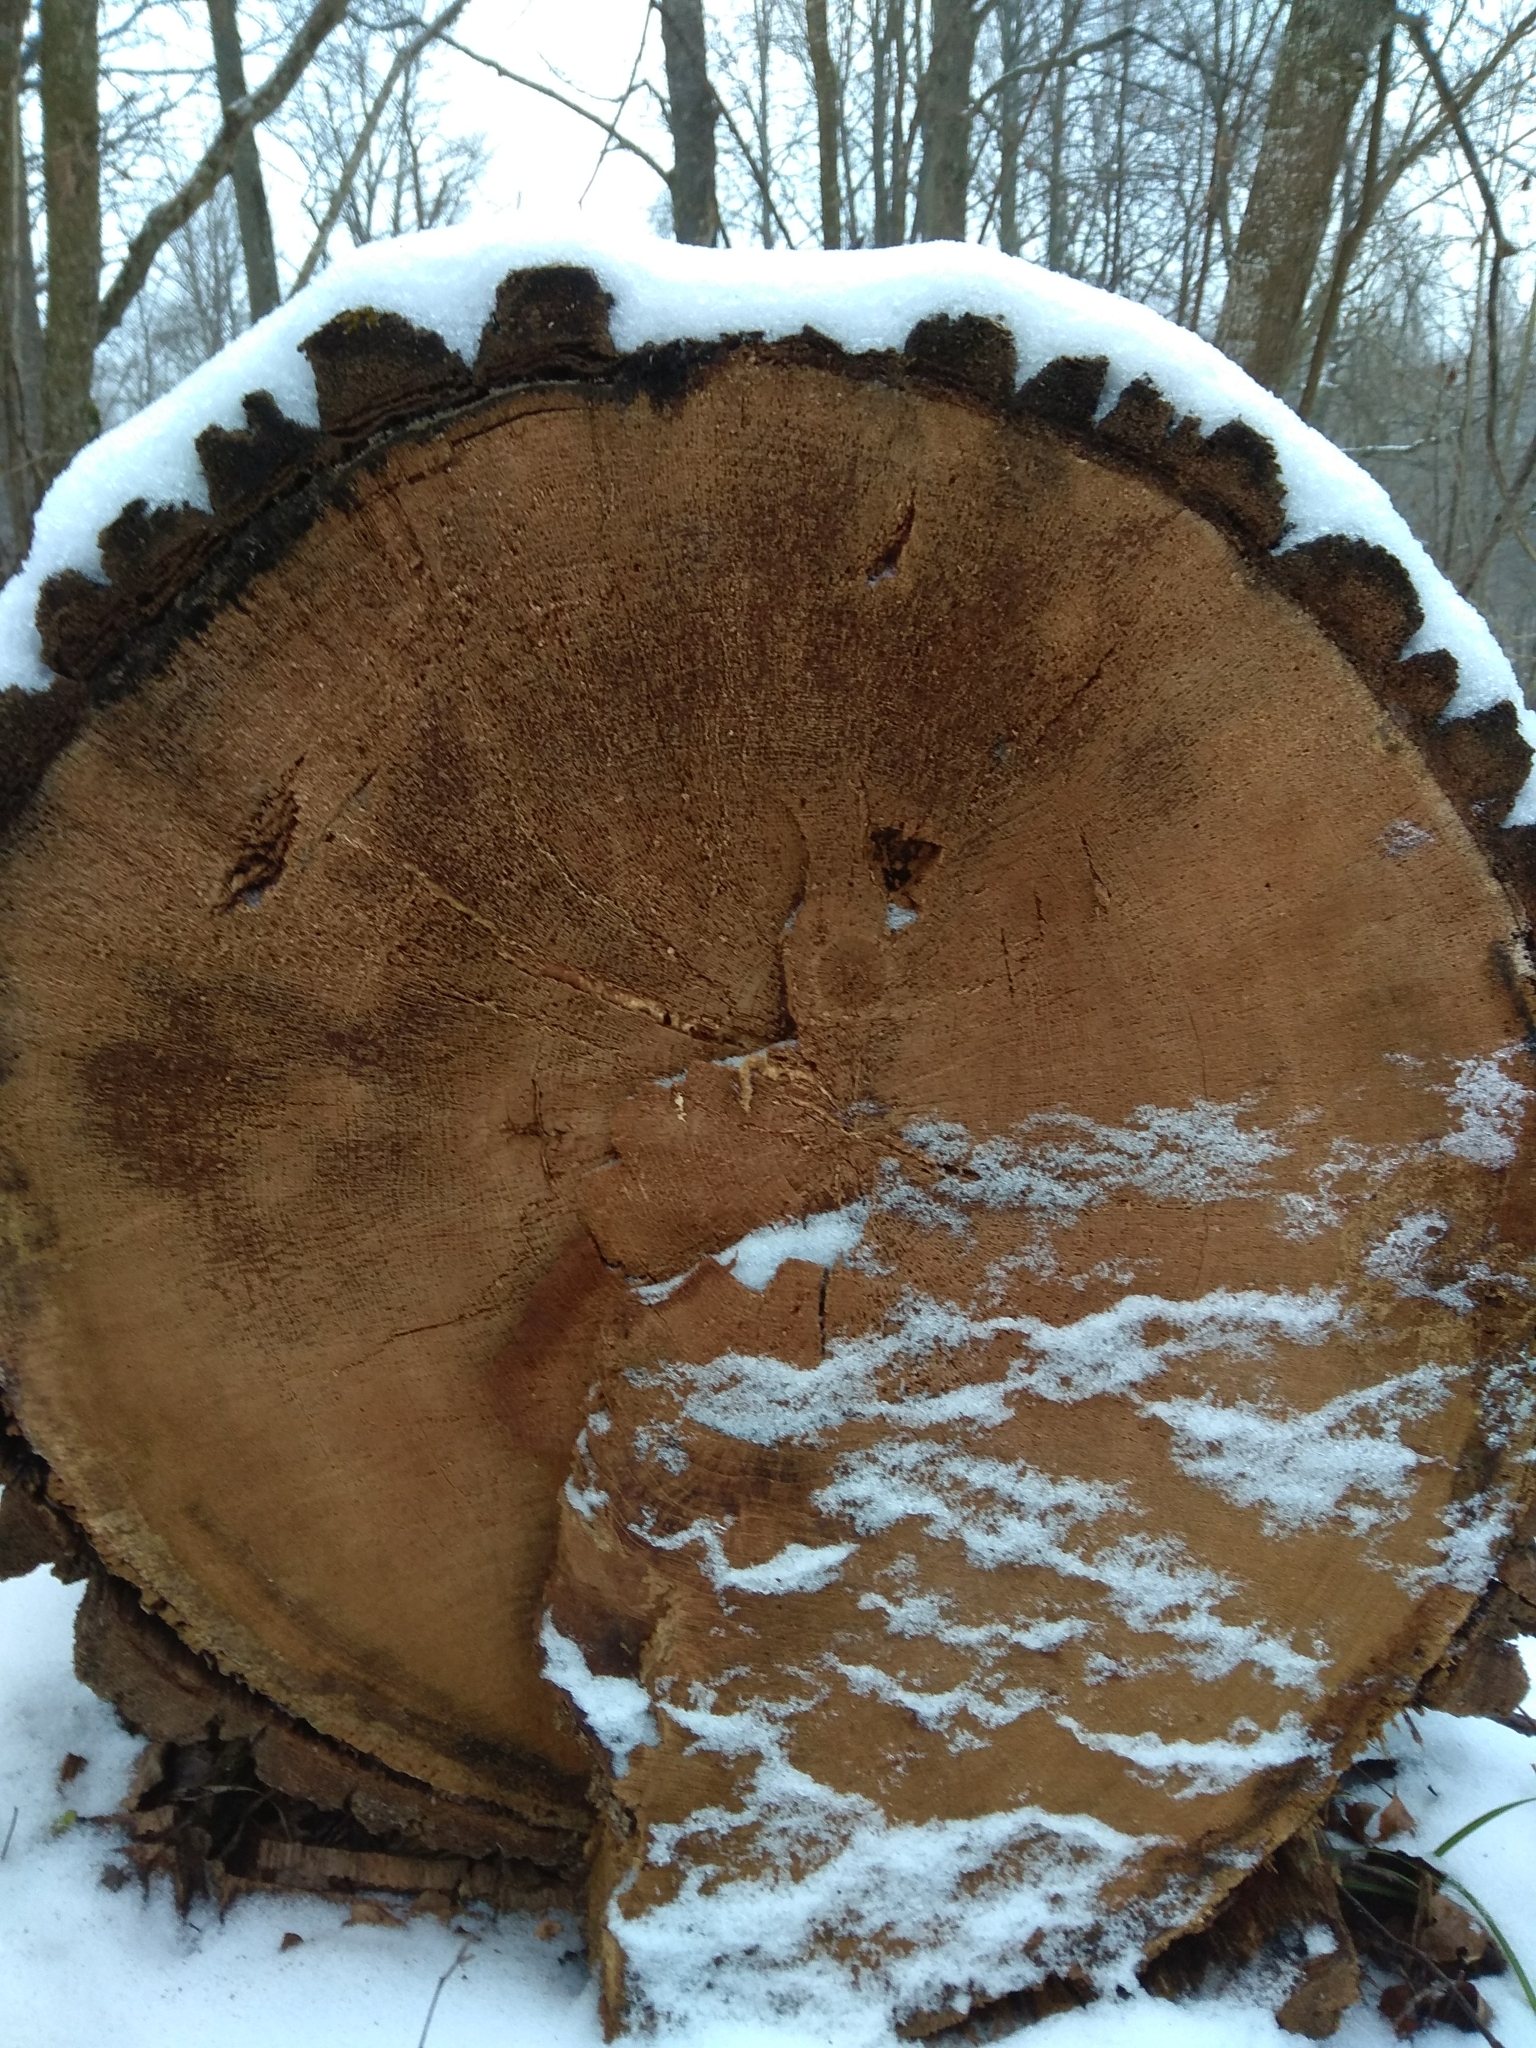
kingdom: Plantae
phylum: Tracheophyta
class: Magnoliopsida
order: Fagales
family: Fagaceae
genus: Quercus
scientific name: Quercus robur
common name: Pedunculate oak
